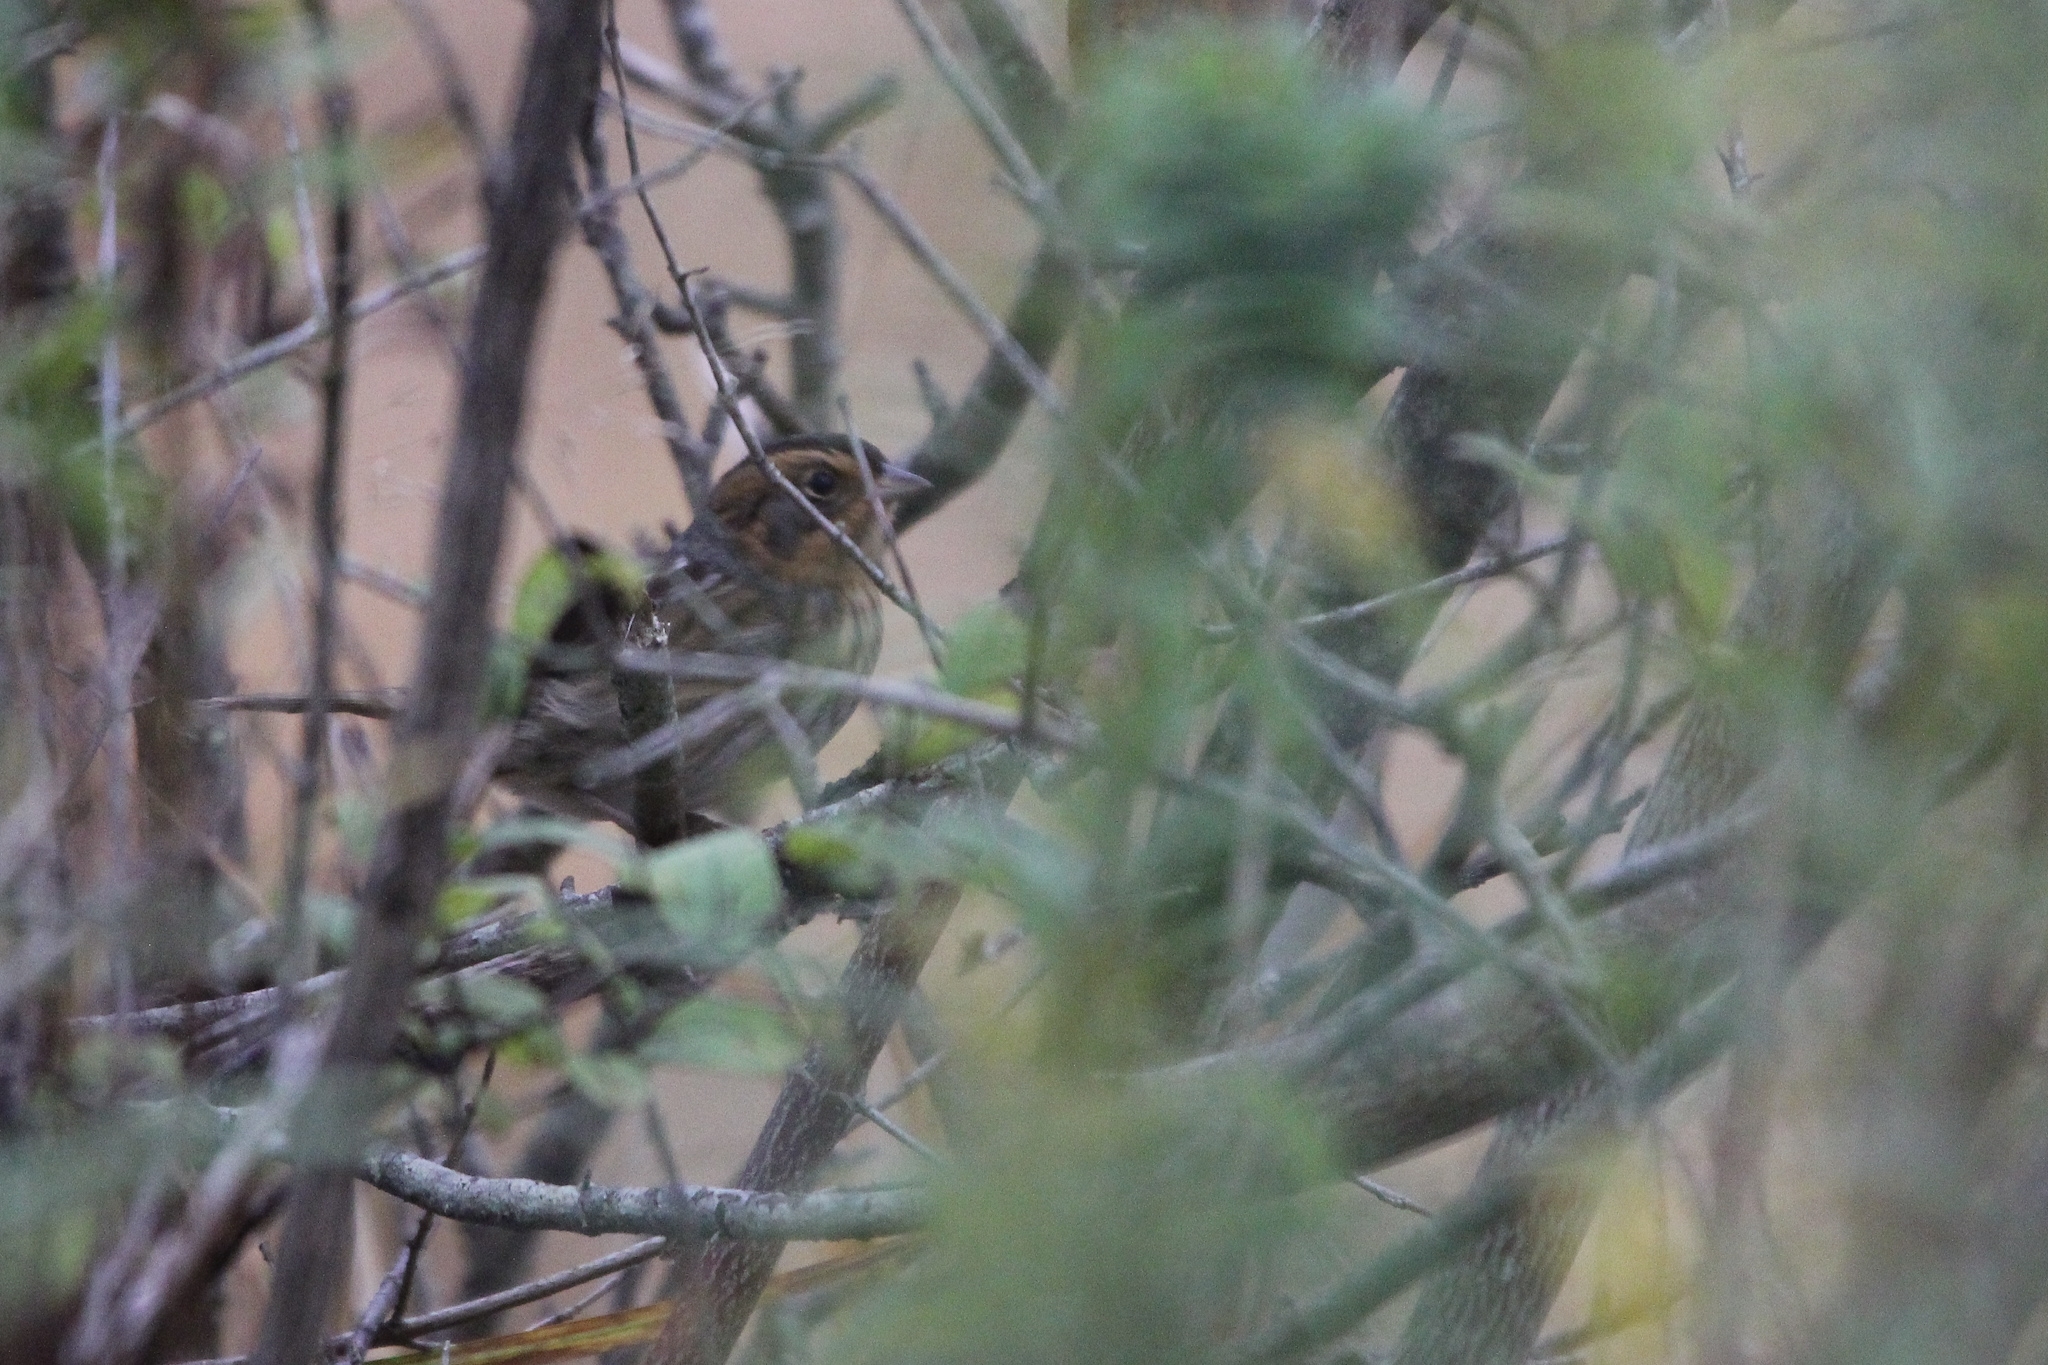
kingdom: Animalia
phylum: Chordata
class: Aves
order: Passeriformes
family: Passerellidae
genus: Ammospiza
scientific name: Ammospiza nelsoni
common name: Nelson's sparrow
